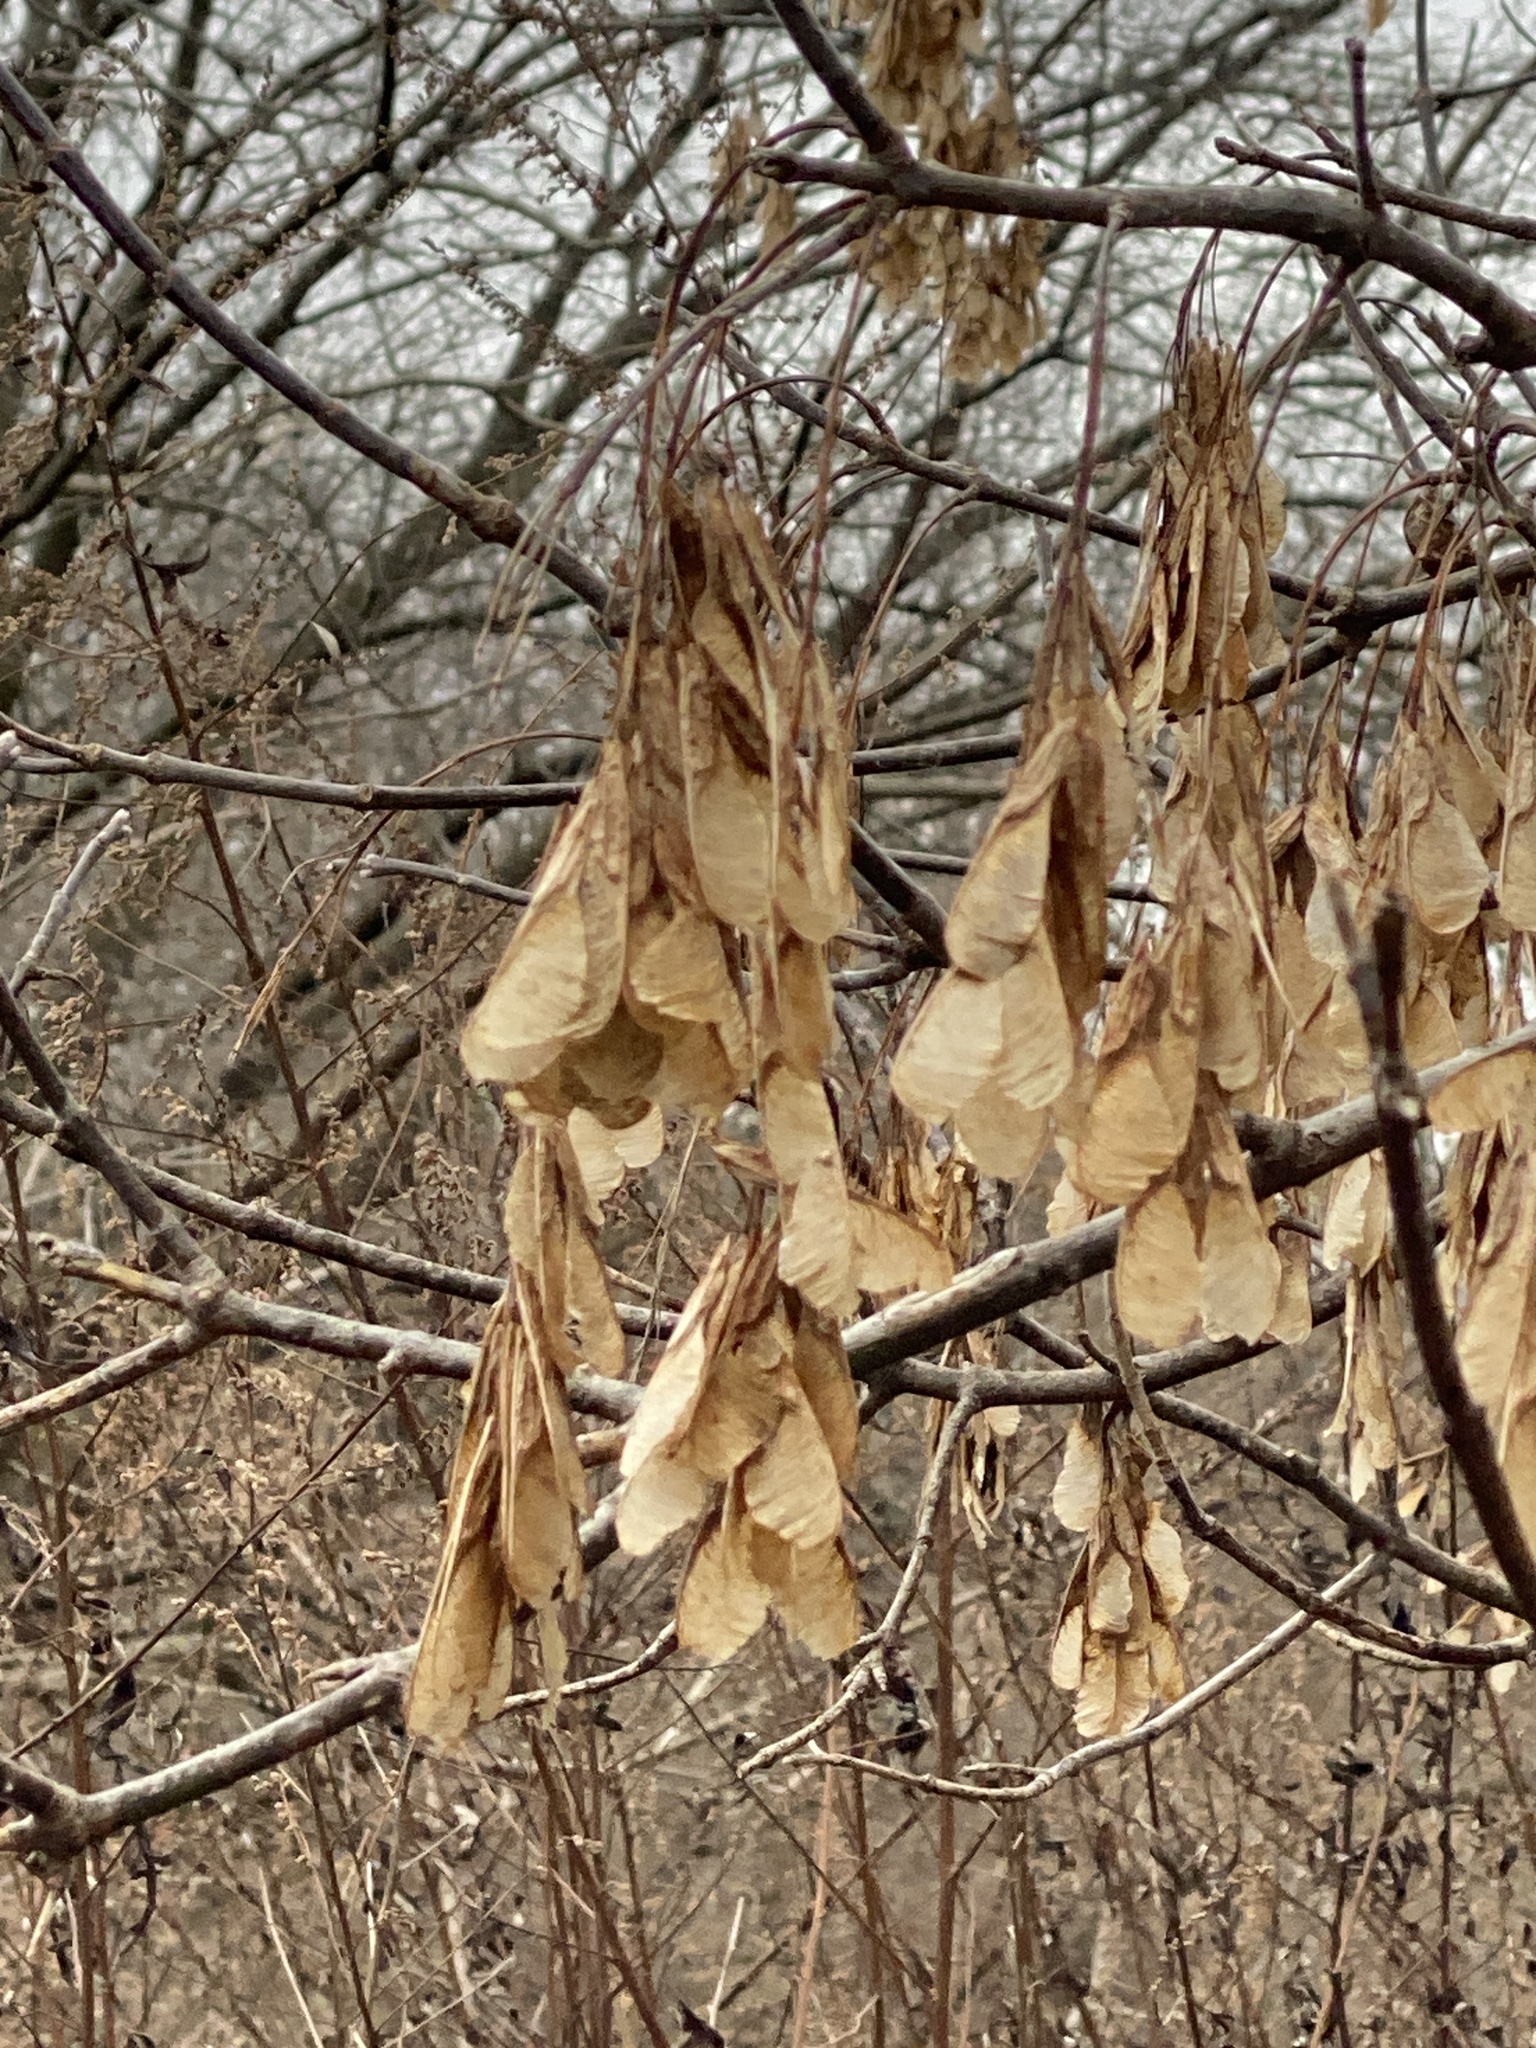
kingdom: Plantae
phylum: Tracheophyta
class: Magnoliopsida
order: Sapindales
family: Sapindaceae
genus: Acer
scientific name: Acer negundo
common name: Ashleaf maple
